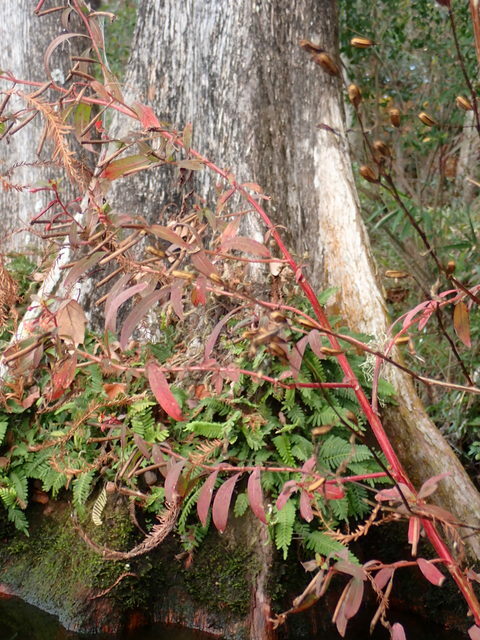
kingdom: Plantae
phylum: Tracheophyta
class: Magnoliopsida
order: Myrtales
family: Onagraceae
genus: Ludwigia
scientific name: Ludwigia leptocarpa
